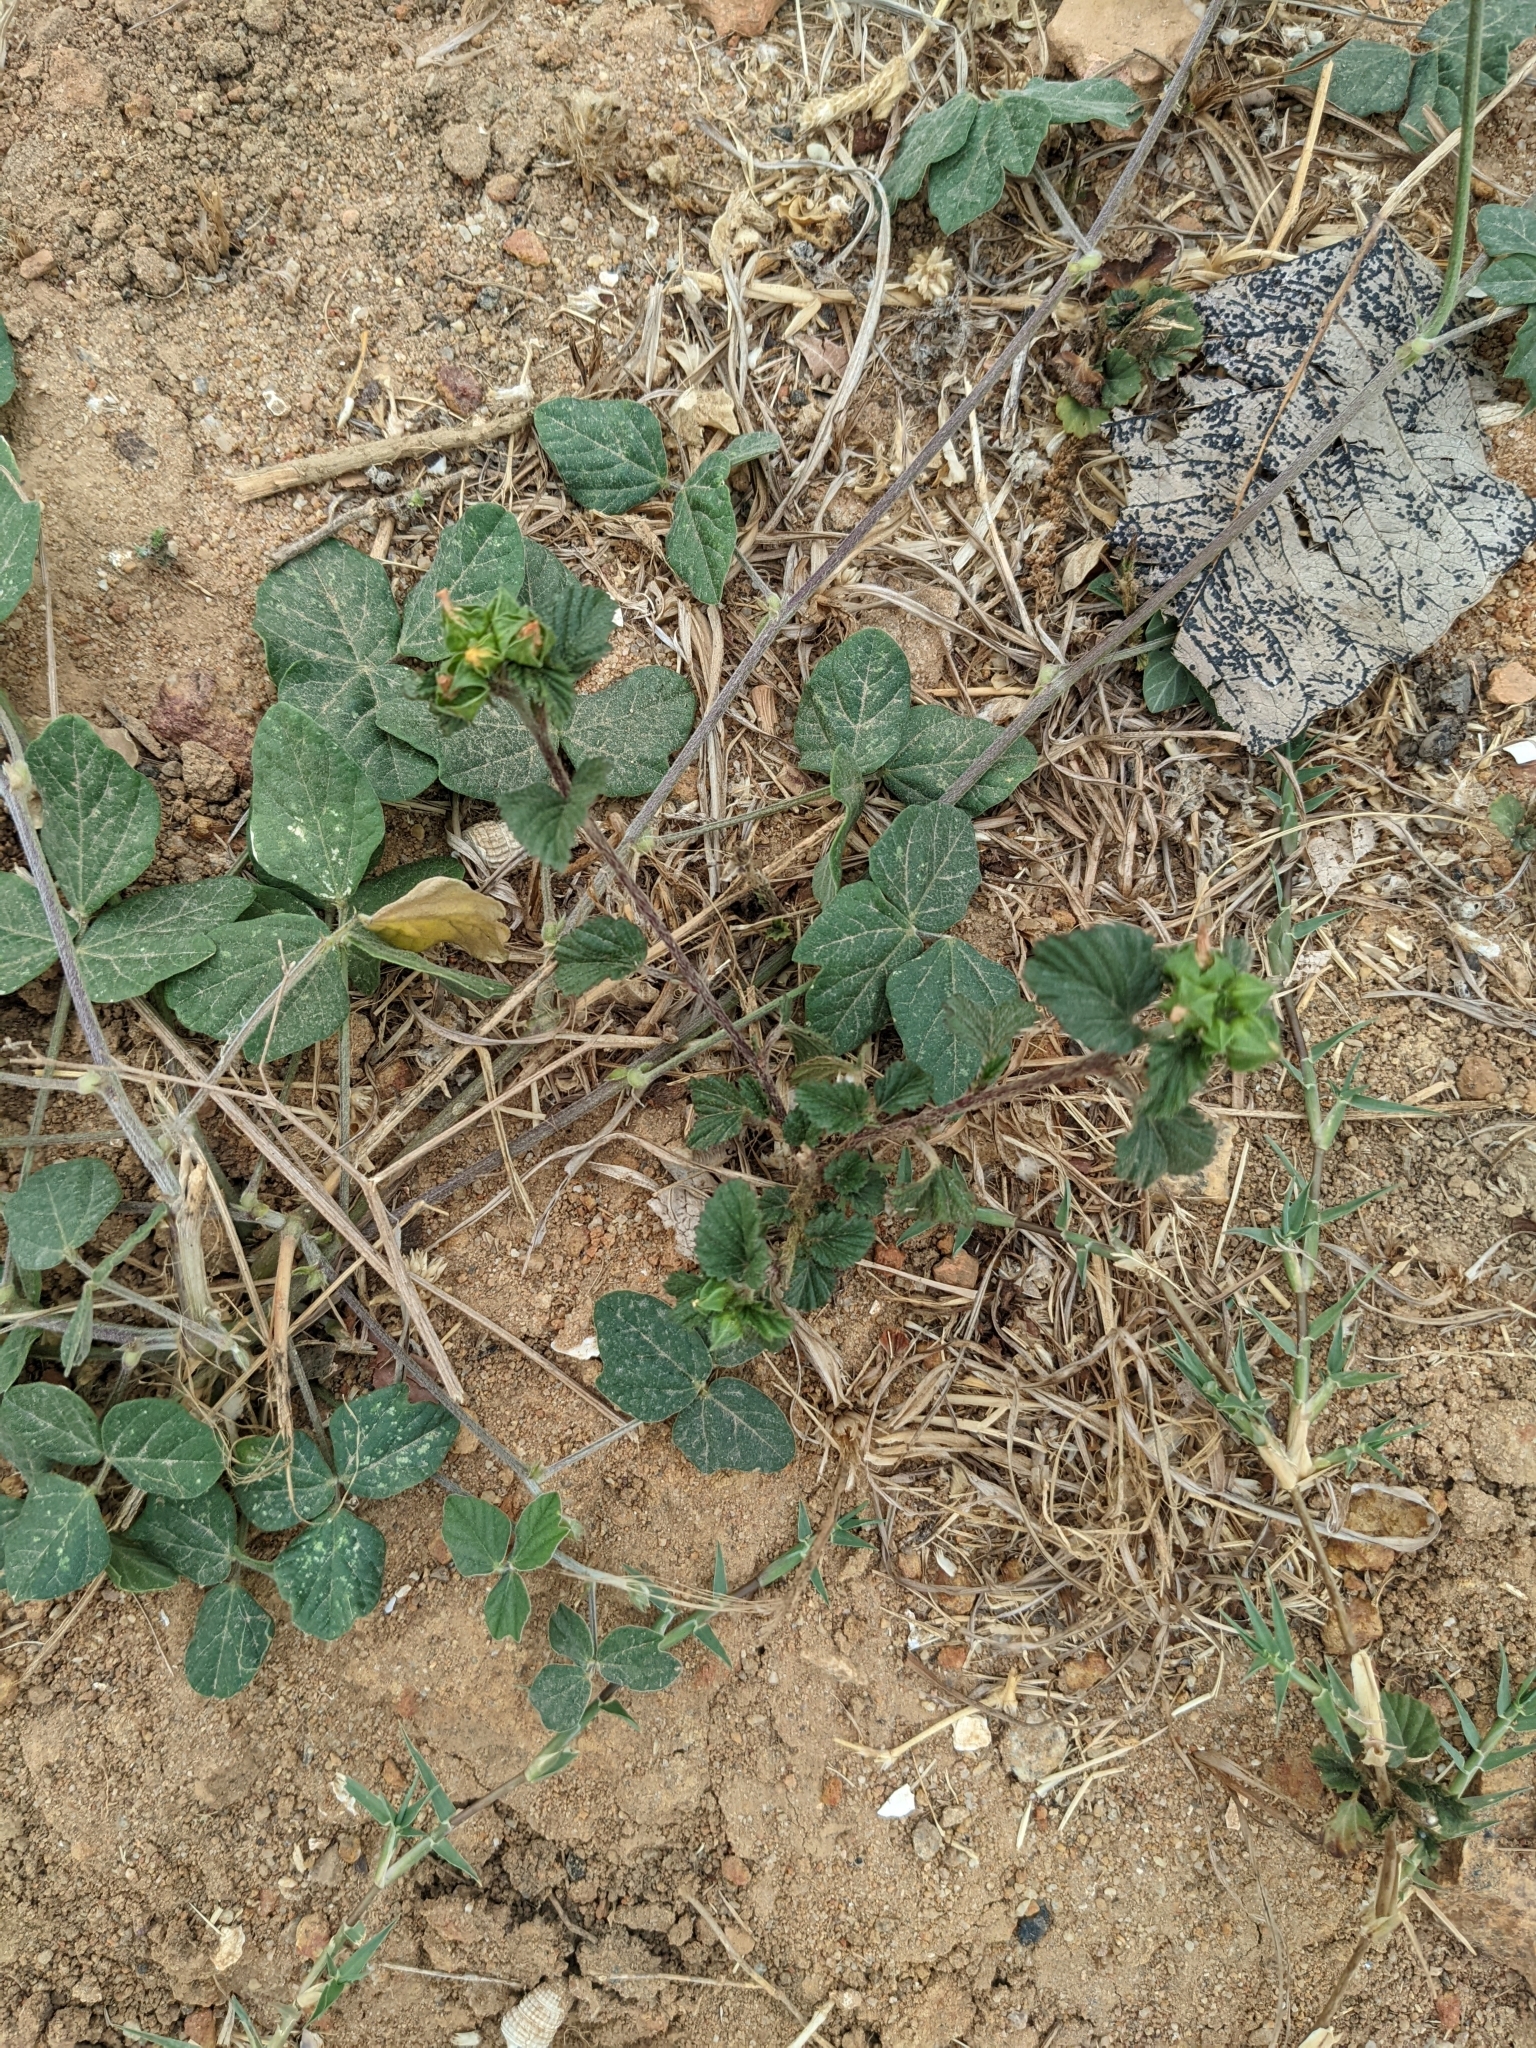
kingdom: Plantae
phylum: Tracheophyta
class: Magnoliopsida
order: Fabales
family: Fabaceae
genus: Macroptilium
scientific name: Macroptilium atropurpureum
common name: Purple bushbean
